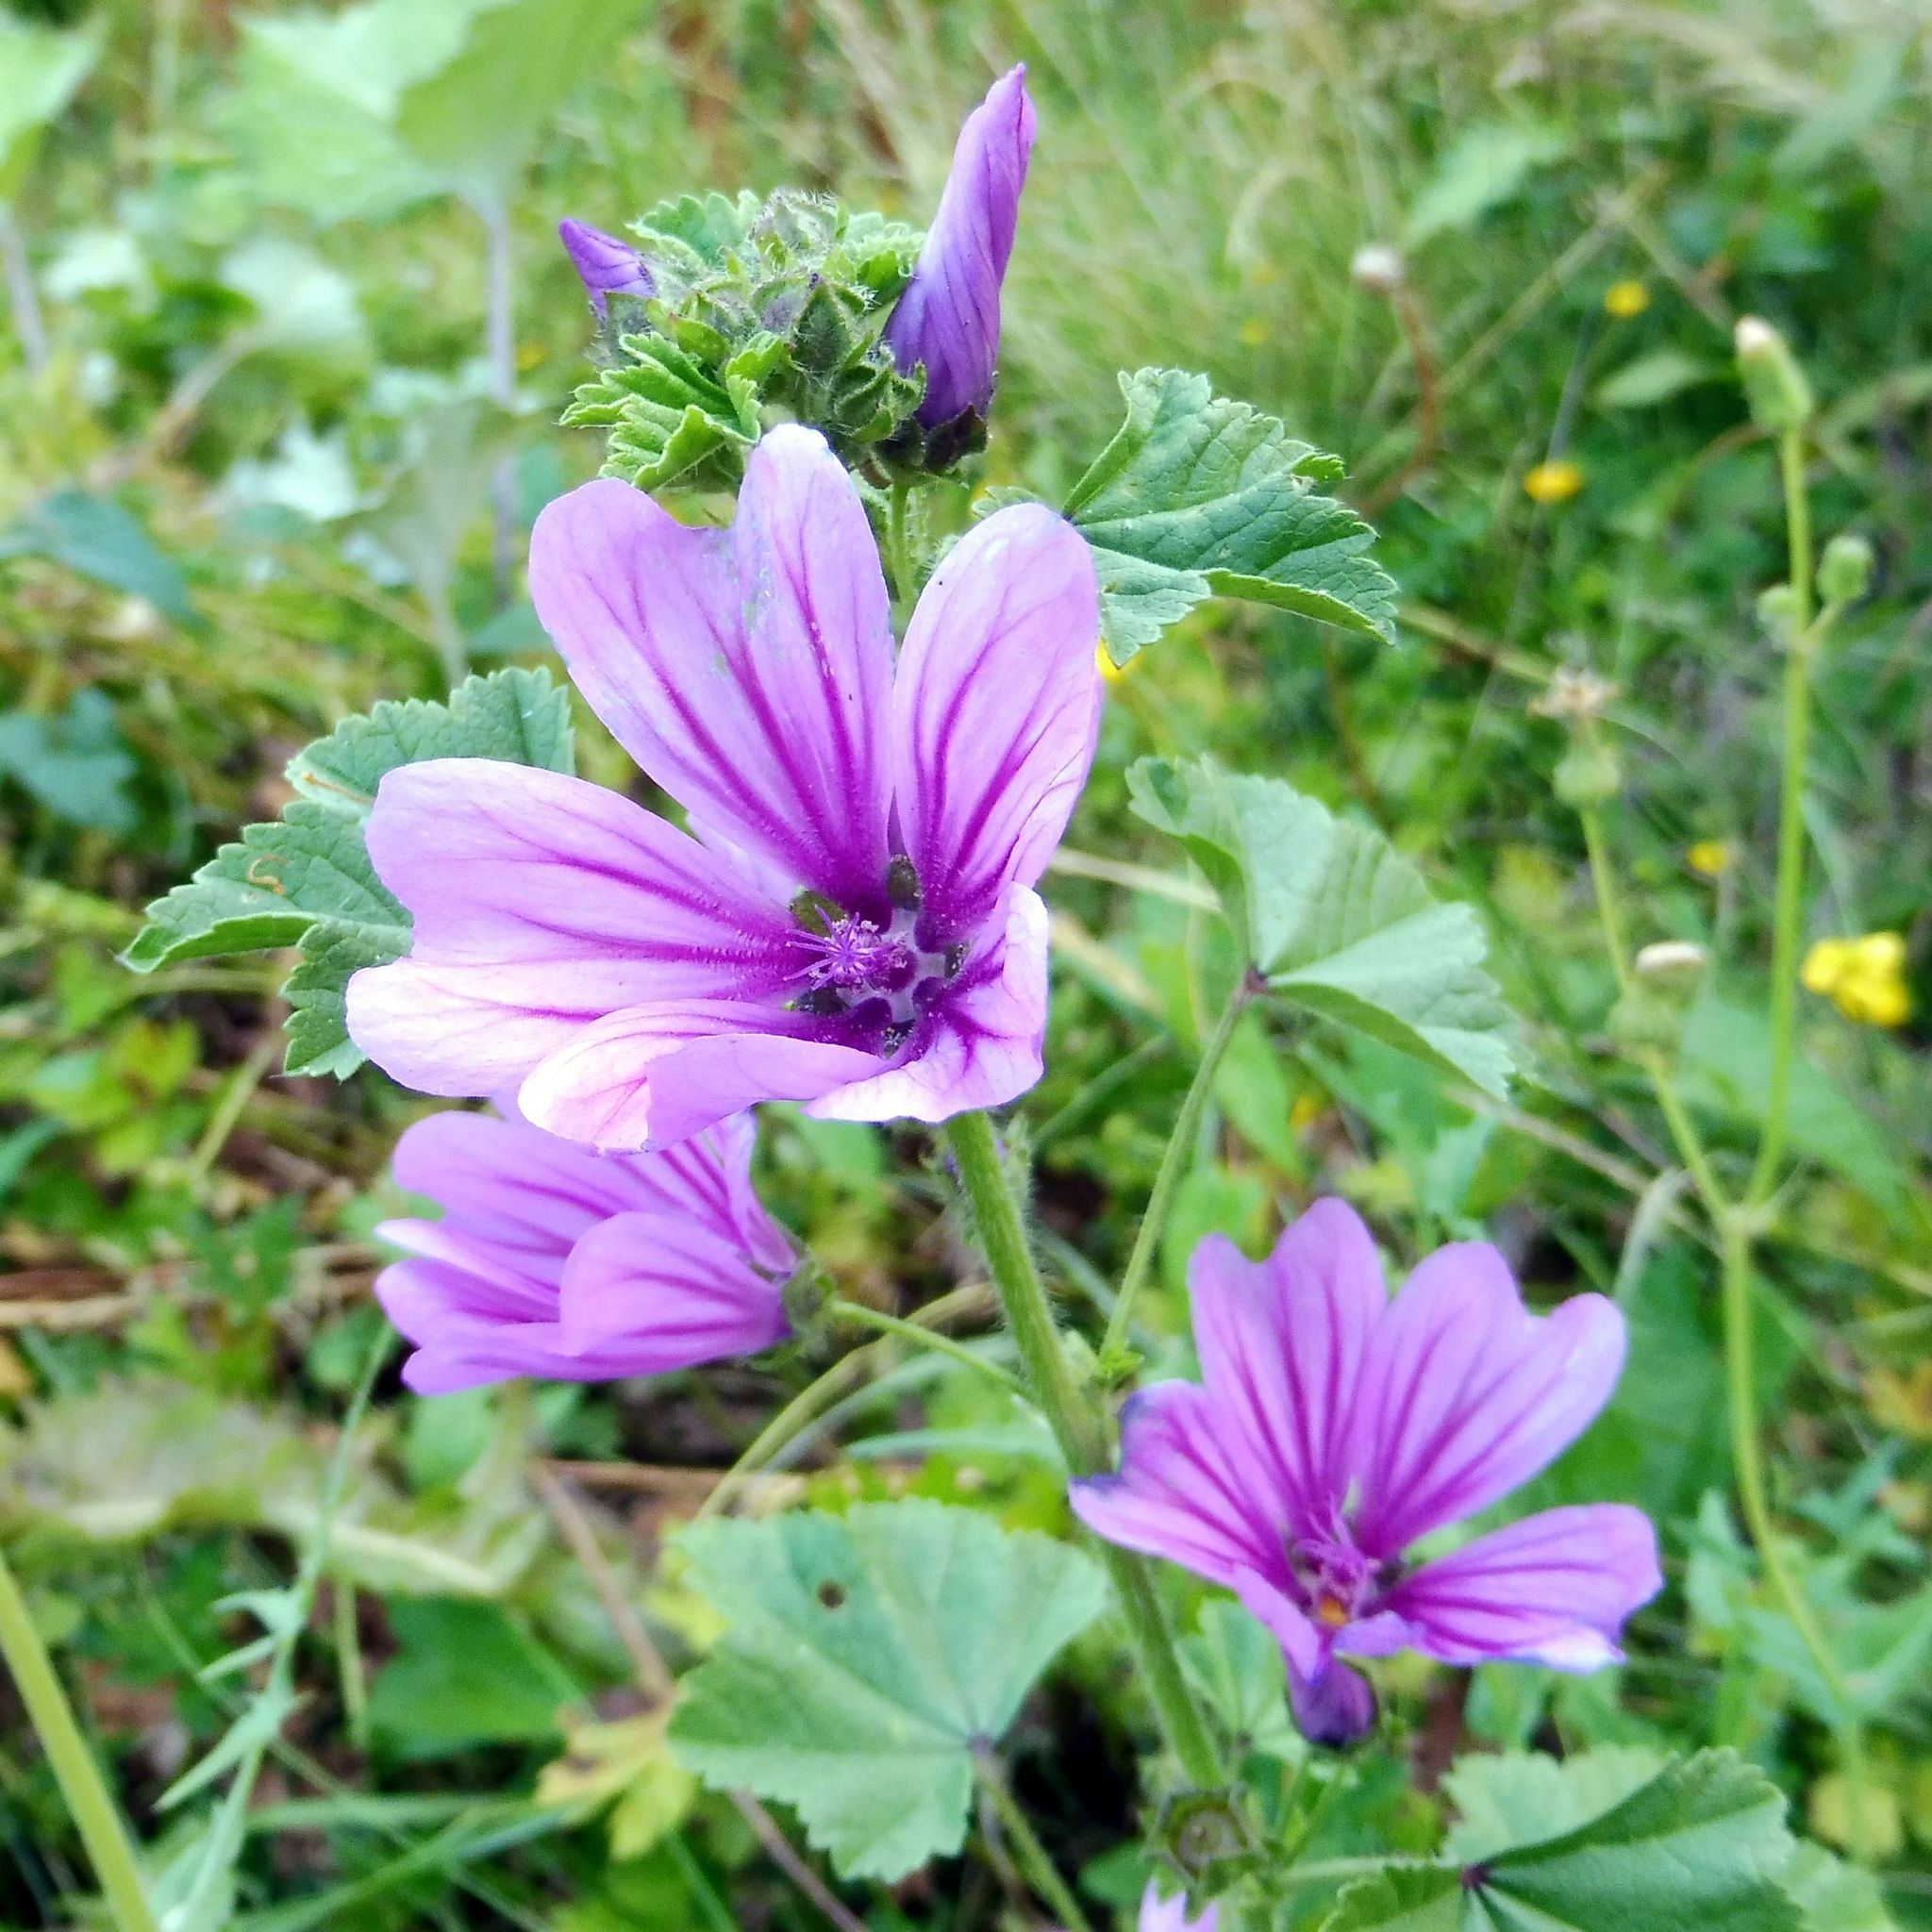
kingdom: Plantae
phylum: Tracheophyta
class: Magnoliopsida
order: Malvales
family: Malvaceae
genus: Malva
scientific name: Malva sylvestris
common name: Common mallow
